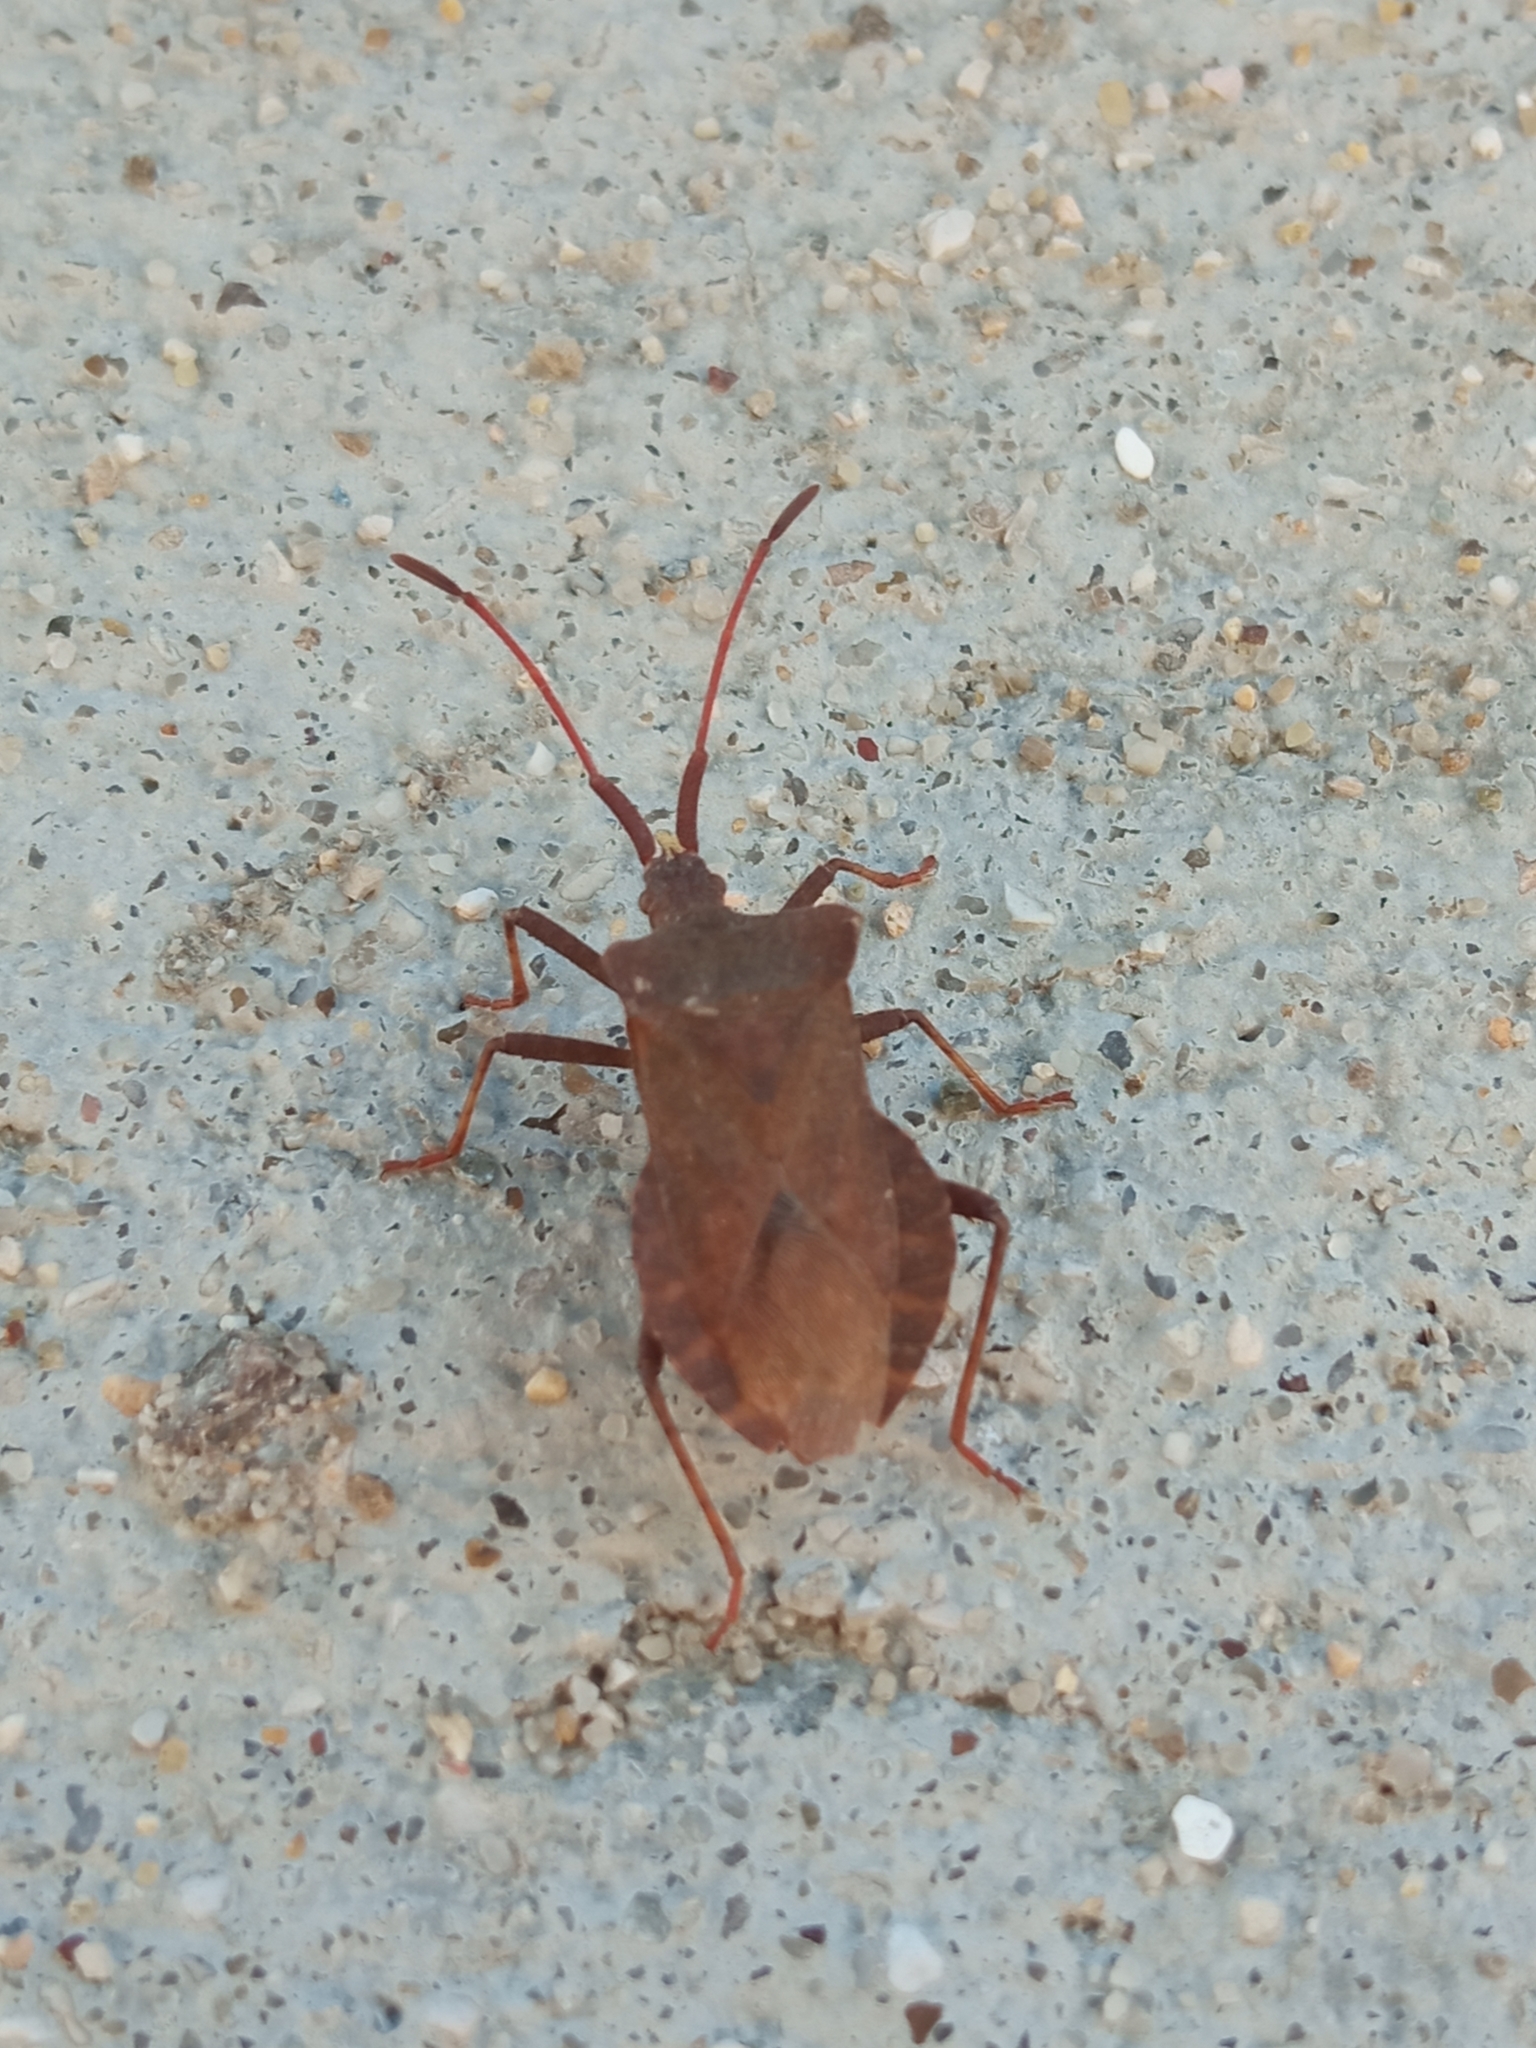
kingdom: Animalia
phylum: Arthropoda
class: Insecta
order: Hemiptera
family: Coreidae
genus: Coreus
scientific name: Coreus marginatus
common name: Dock bug
